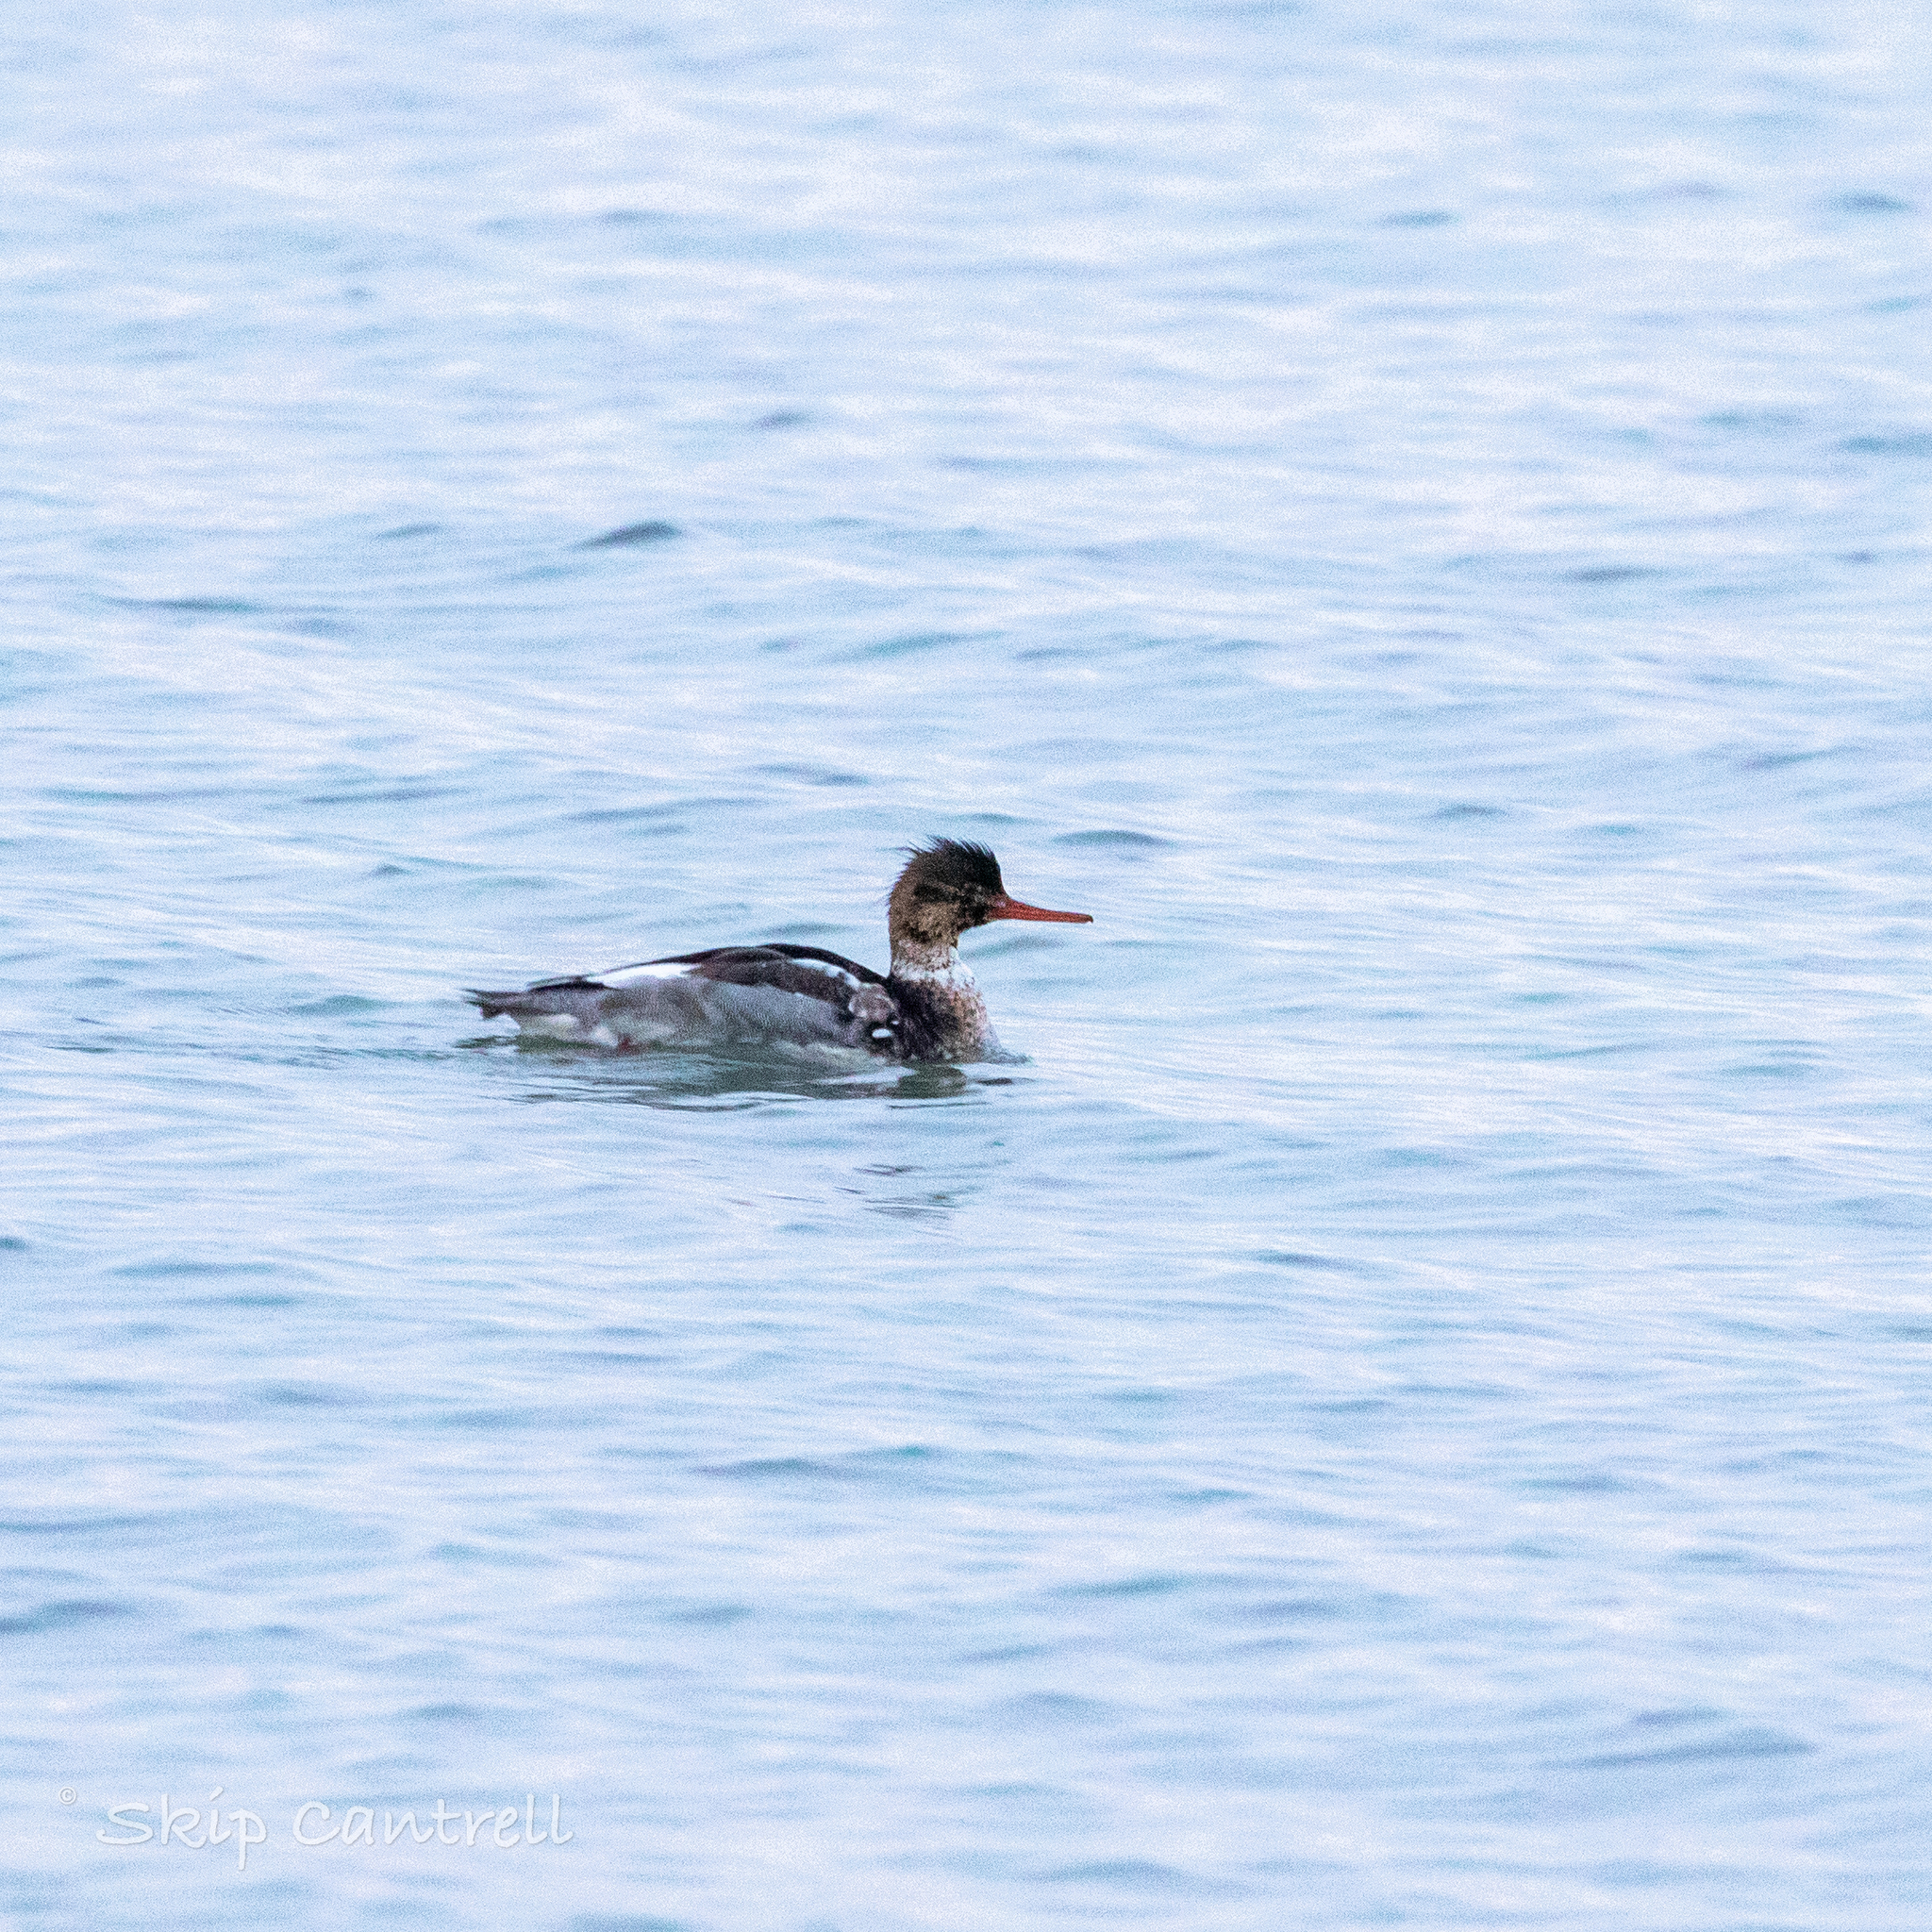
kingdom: Animalia
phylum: Chordata
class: Aves
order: Anseriformes
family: Anatidae
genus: Mergus
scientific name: Mergus serrator
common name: Red-breasted merganser
